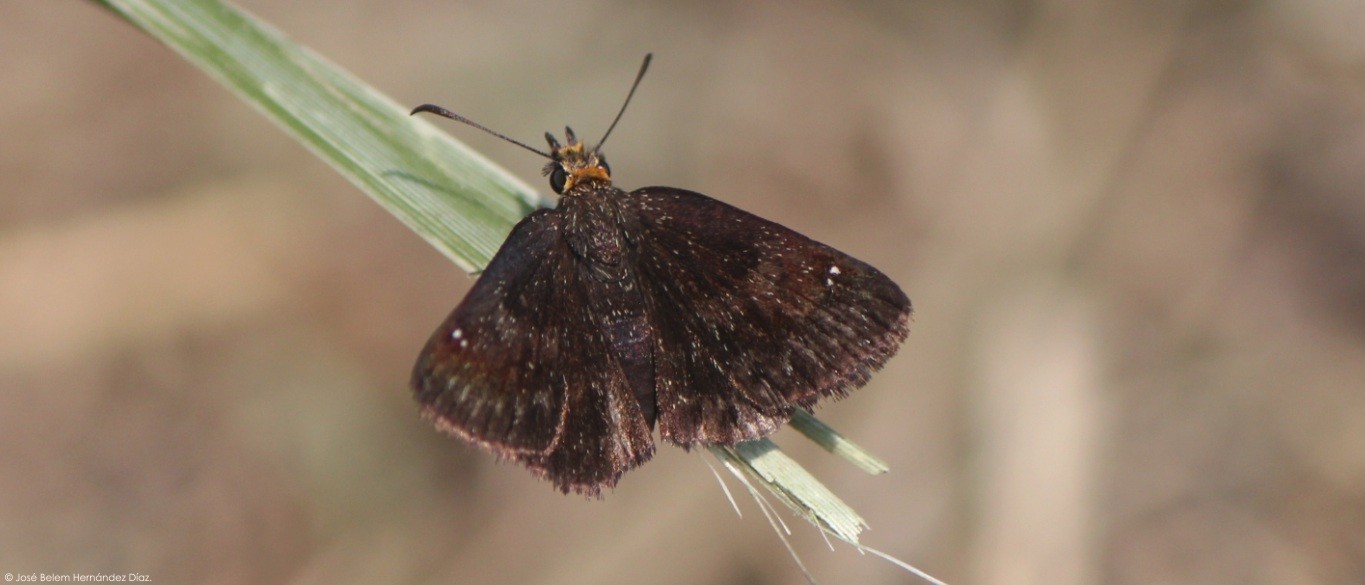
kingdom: Animalia
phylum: Arthropoda
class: Insecta
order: Lepidoptera
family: Hesperiidae
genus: Staphylus
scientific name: Staphylus ceos
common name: Golden-headed scallopwing
